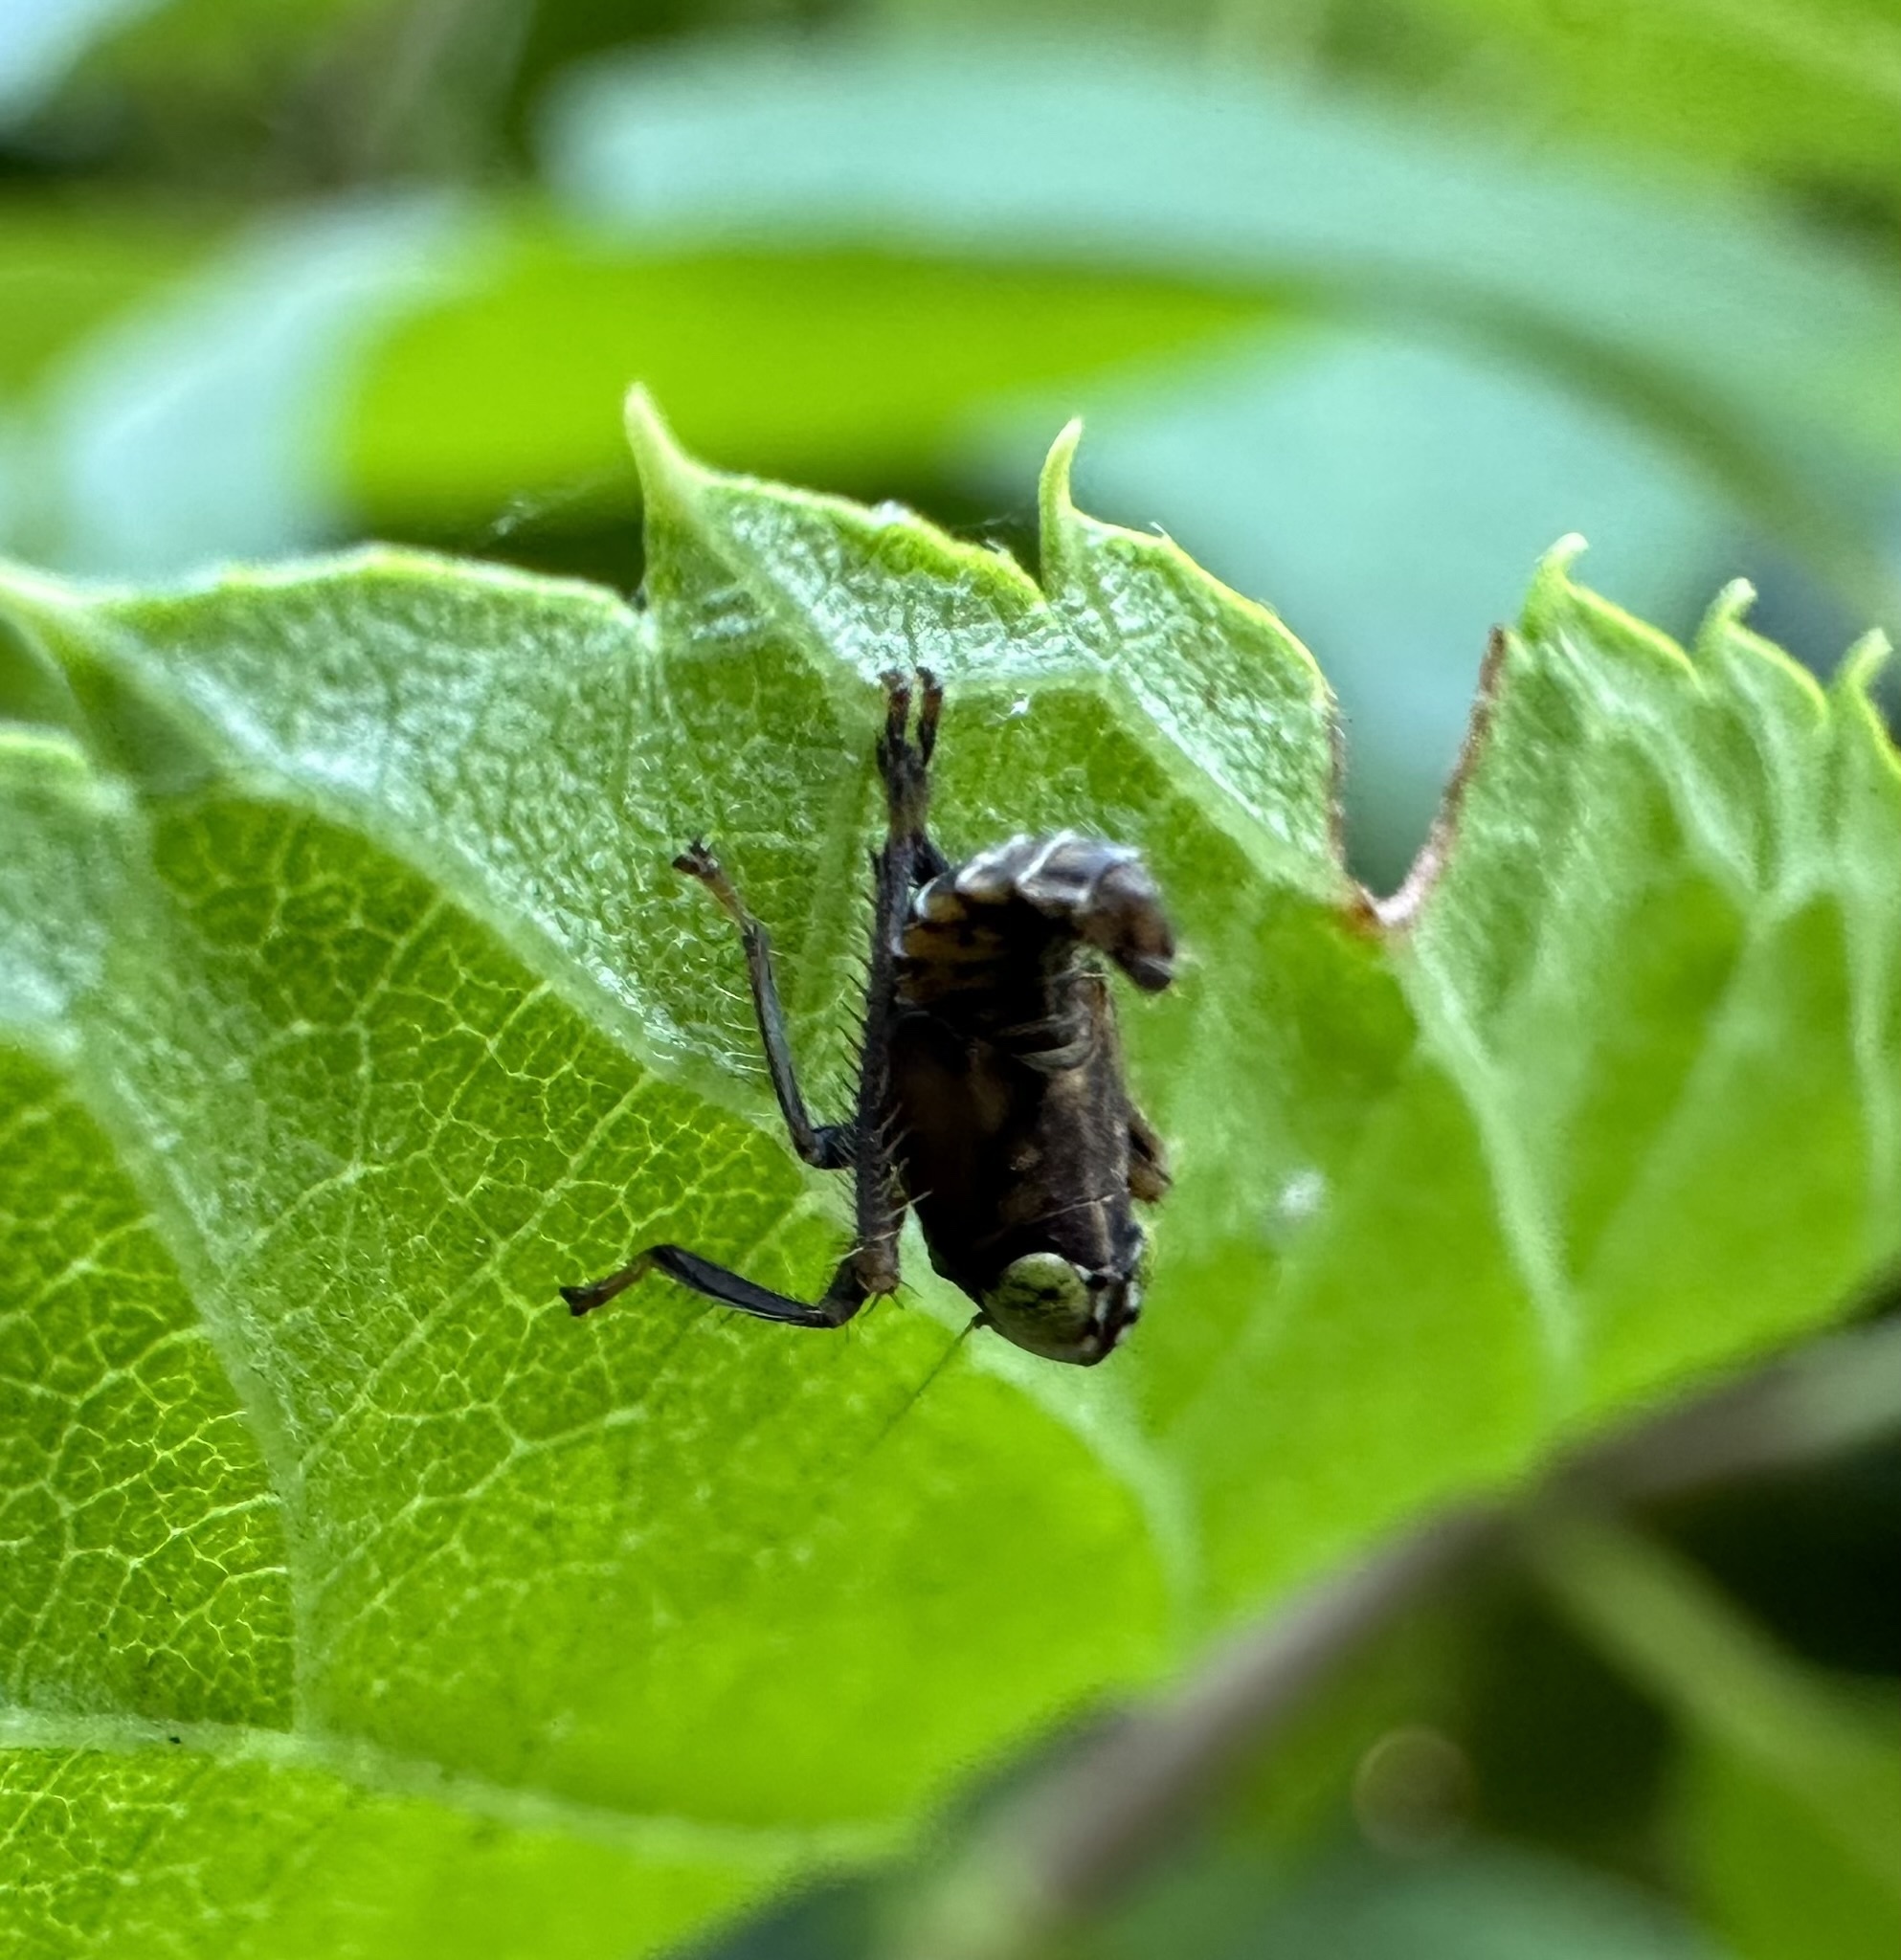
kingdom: Animalia
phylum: Arthropoda
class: Insecta
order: Hemiptera
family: Cicadellidae
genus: Jikradia
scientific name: Jikradia olitoria
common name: Coppery leafhopper
